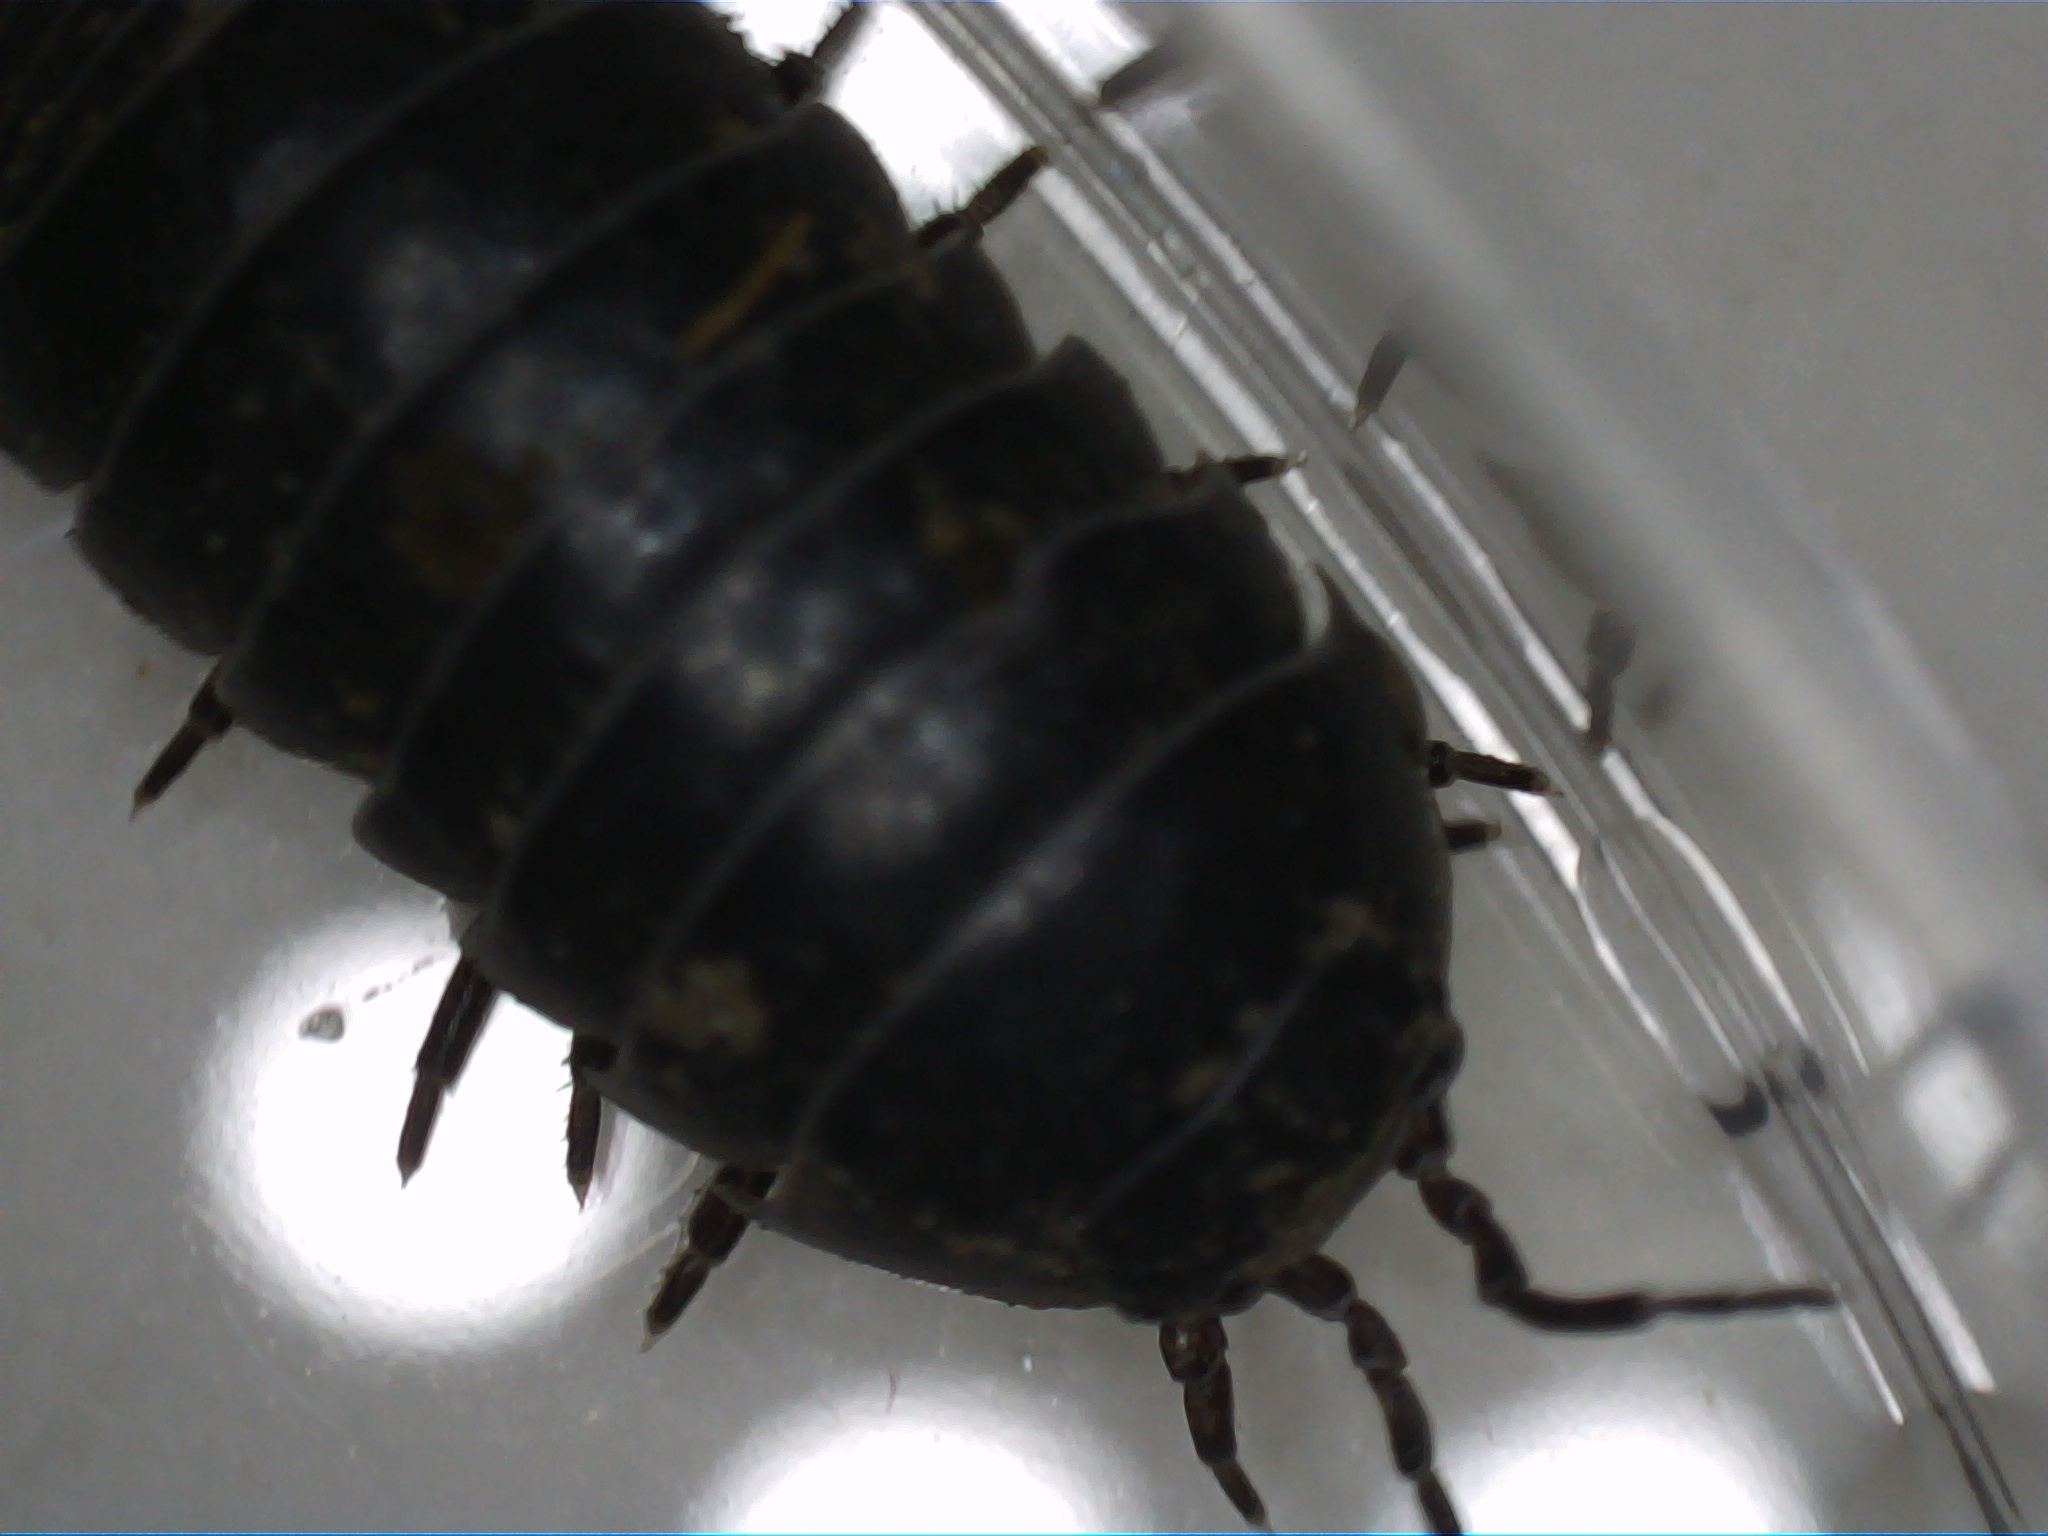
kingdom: Animalia
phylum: Arthropoda
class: Malacostraca
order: Isopoda
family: Armadillidiidae
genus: Armadillidium
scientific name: Armadillidium vulgare
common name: Common pill woodlouse
